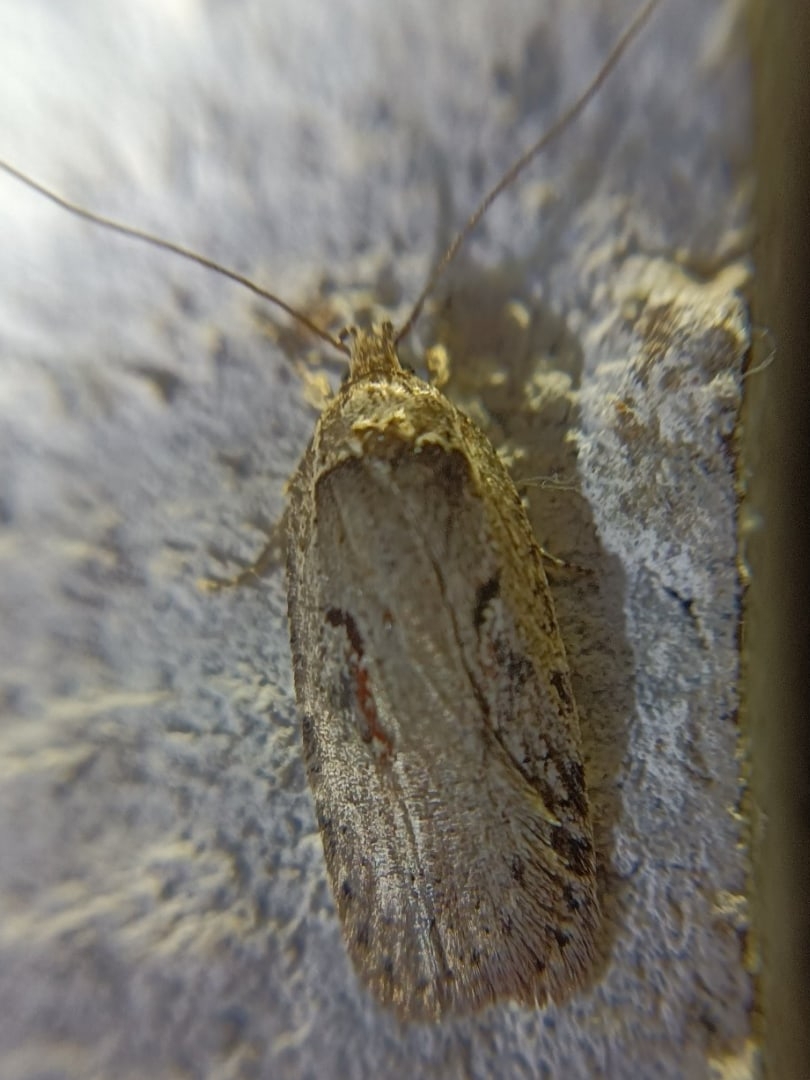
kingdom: Animalia
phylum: Arthropoda
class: Insecta
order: Lepidoptera
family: Depressariidae
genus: Agonopterix
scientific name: Agonopterix ocellana
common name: Red-letter flat-body
